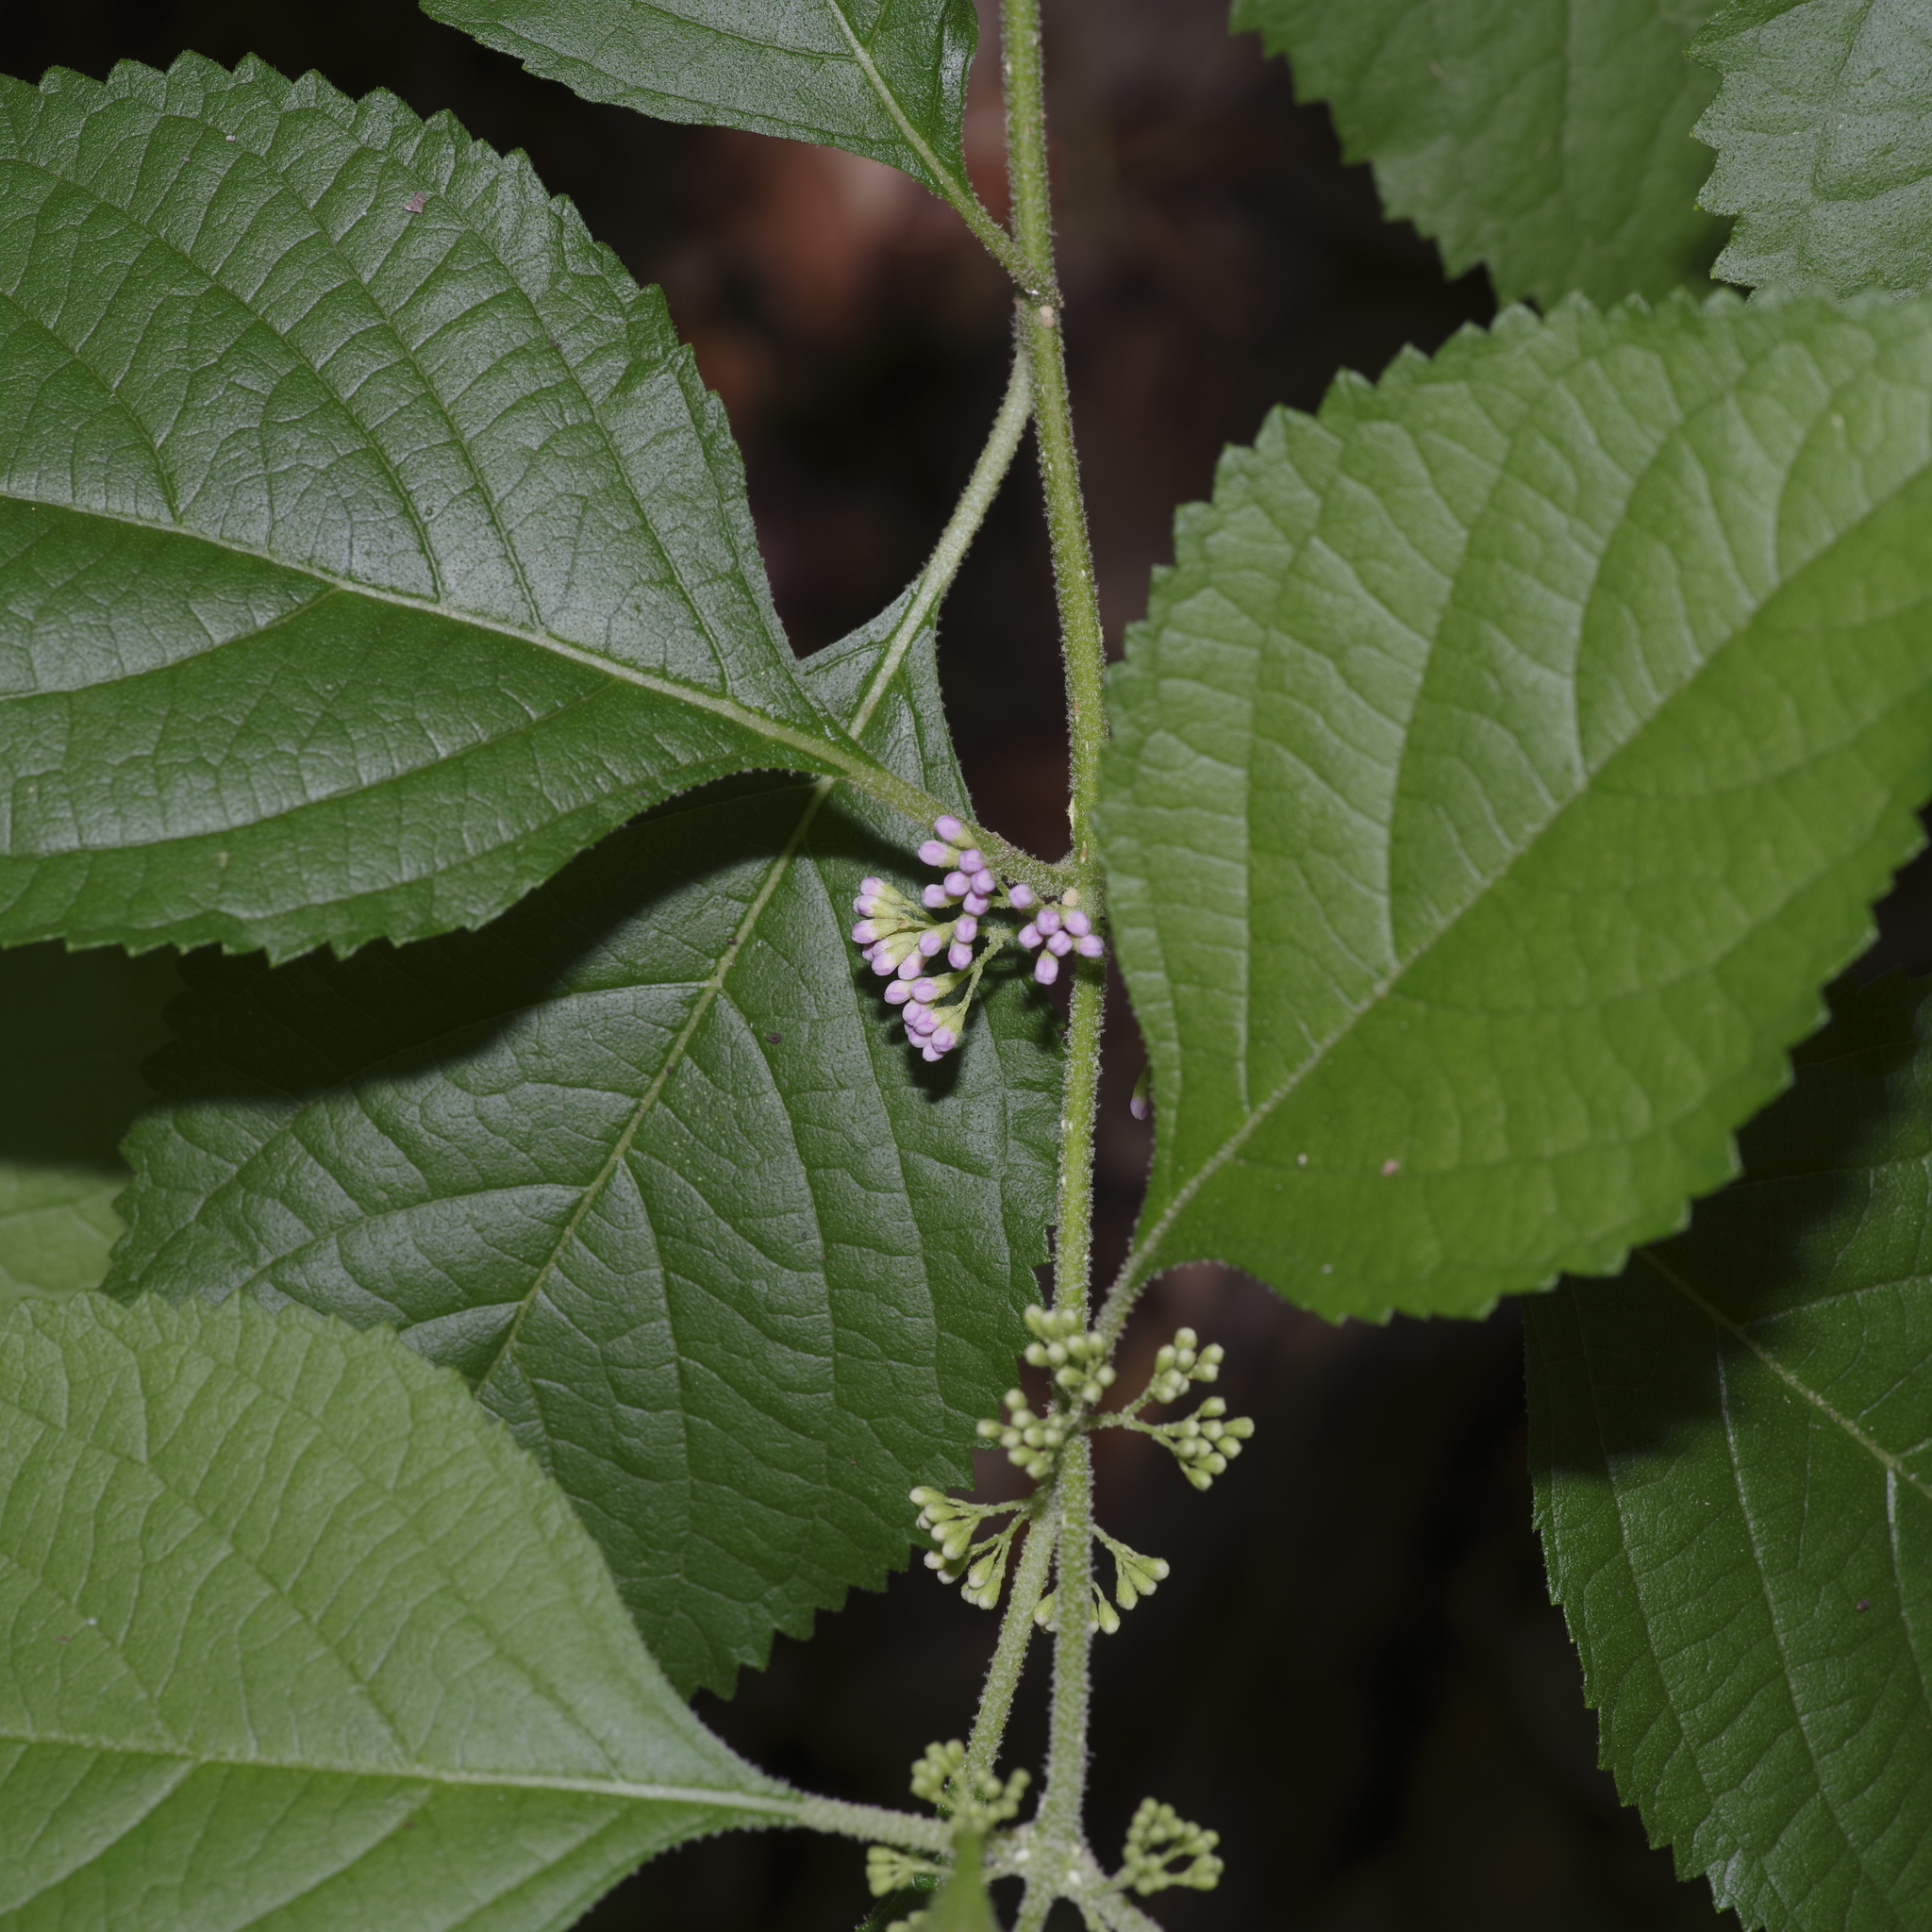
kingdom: Plantae
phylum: Tracheophyta
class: Magnoliopsida
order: Lamiales
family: Lamiaceae
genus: Callicarpa
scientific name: Callicarpa americana
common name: American beautyberry
